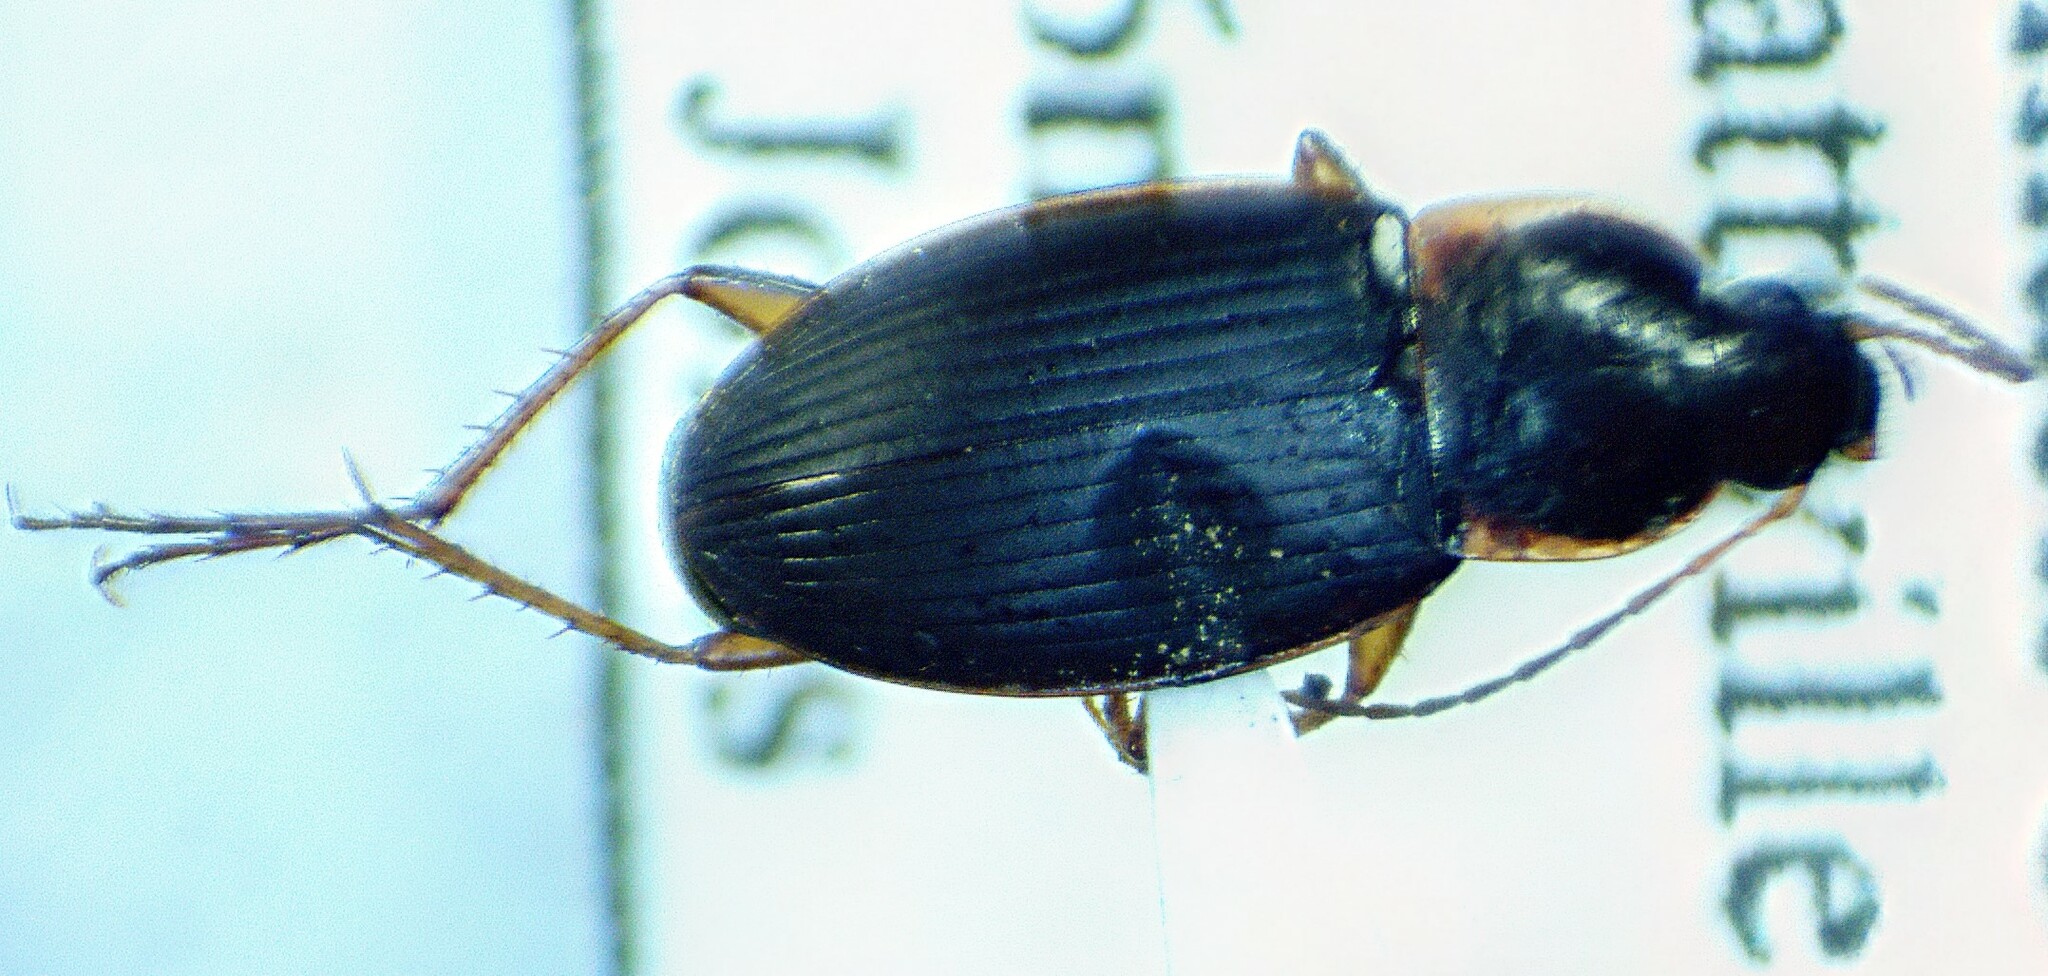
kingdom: Animalia
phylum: Arthropoda
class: Insecta
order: Coleoptera
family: Carabidae
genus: Calathus
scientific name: Calathus opaculus
